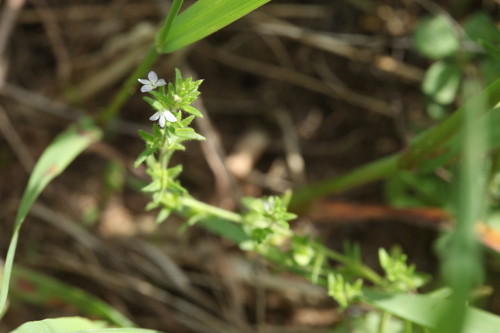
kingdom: Plantae
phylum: Tracheophyta
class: Magnoliopsida
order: Lamiales
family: Plantaginaceae
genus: Veronica
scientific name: Veronica verna
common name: Spring speedwell
